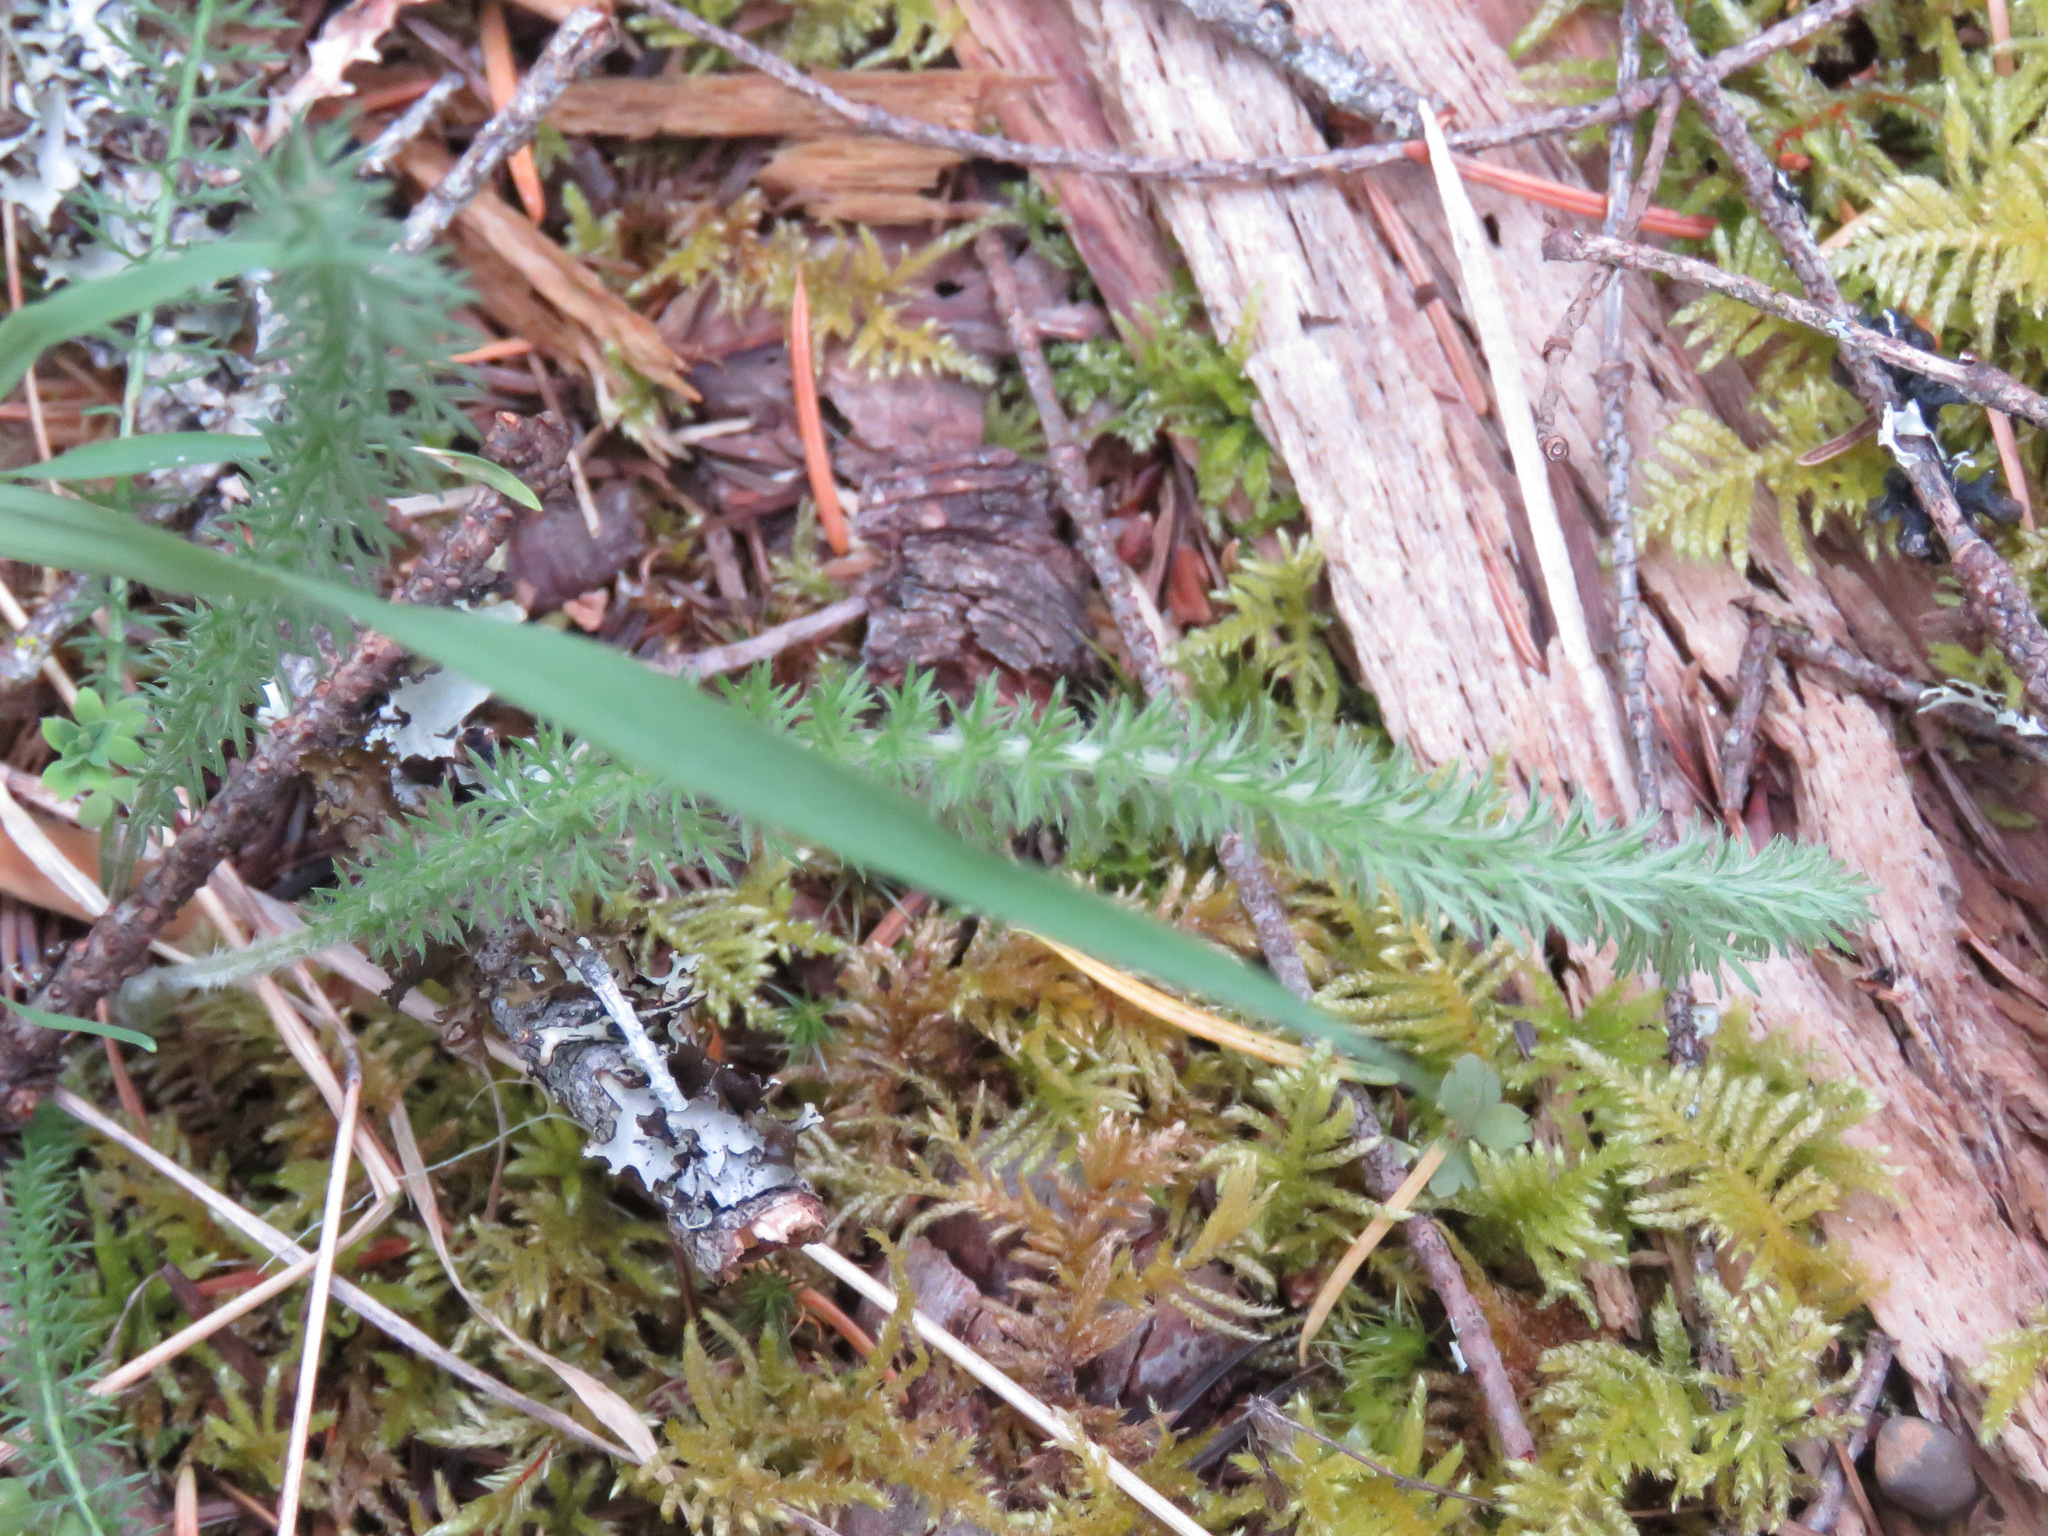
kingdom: Plantae
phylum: Tracheophyta
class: Magnoliopsida
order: Asterales
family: Asteraceae
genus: Achillea
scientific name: Achillea millefolium
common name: Yarrow
